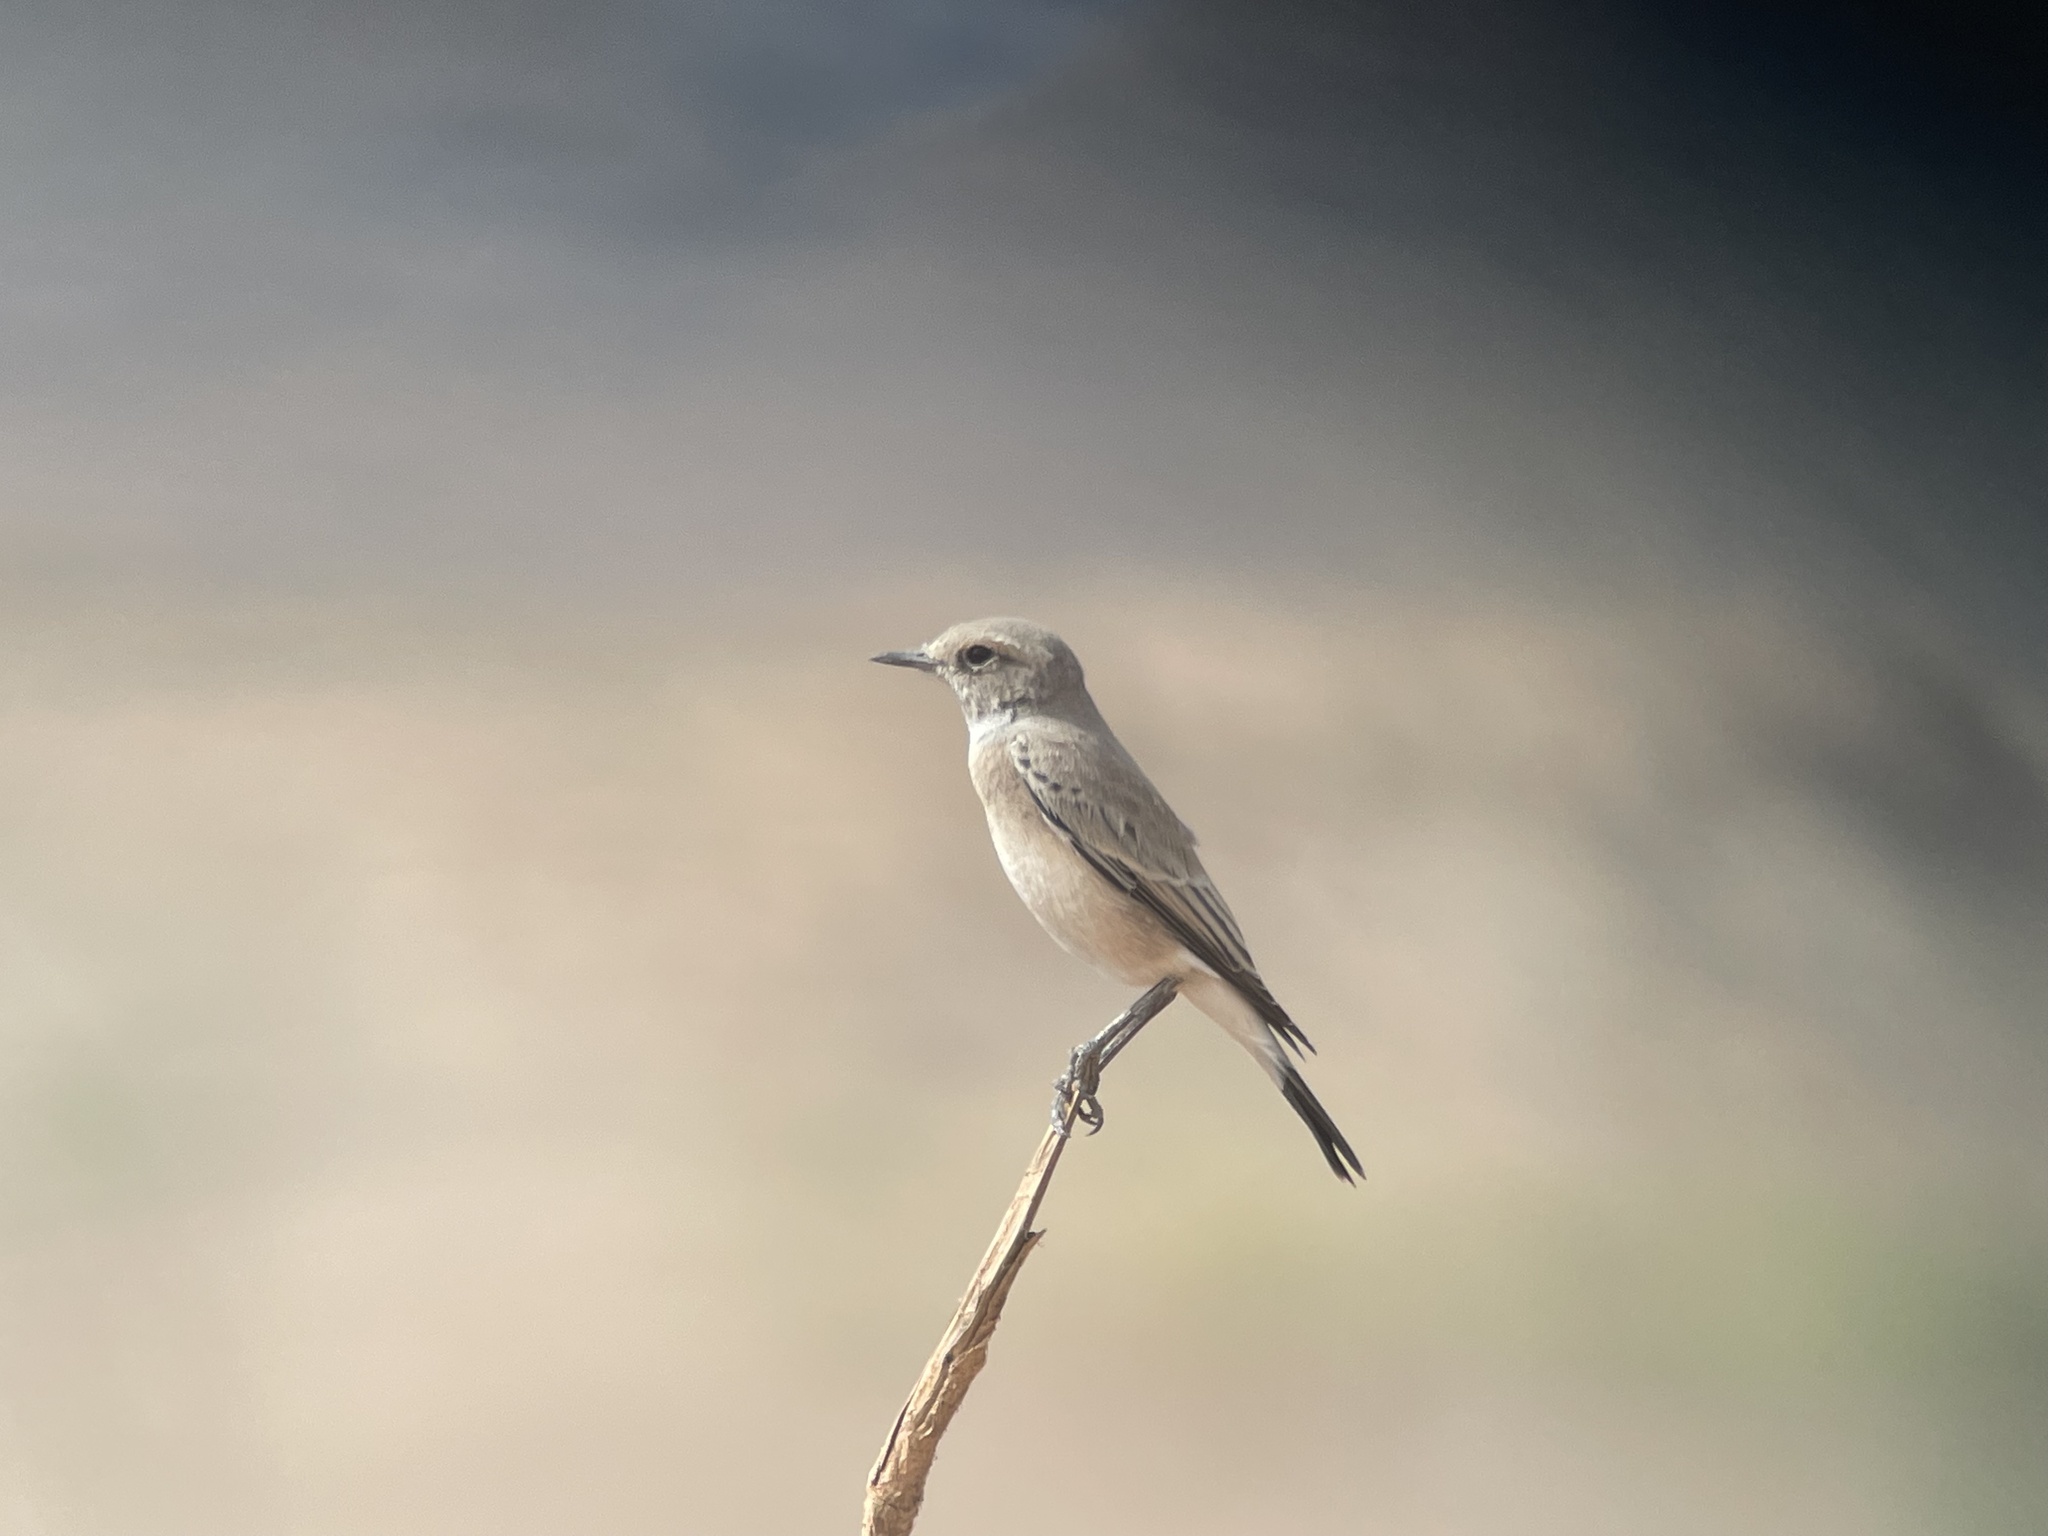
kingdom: Animalia
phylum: Chordata
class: Aves
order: Passeriformes
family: Muscicapidae
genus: Oenanthe
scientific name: Oenanthe deserti
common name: Desert wheatear
